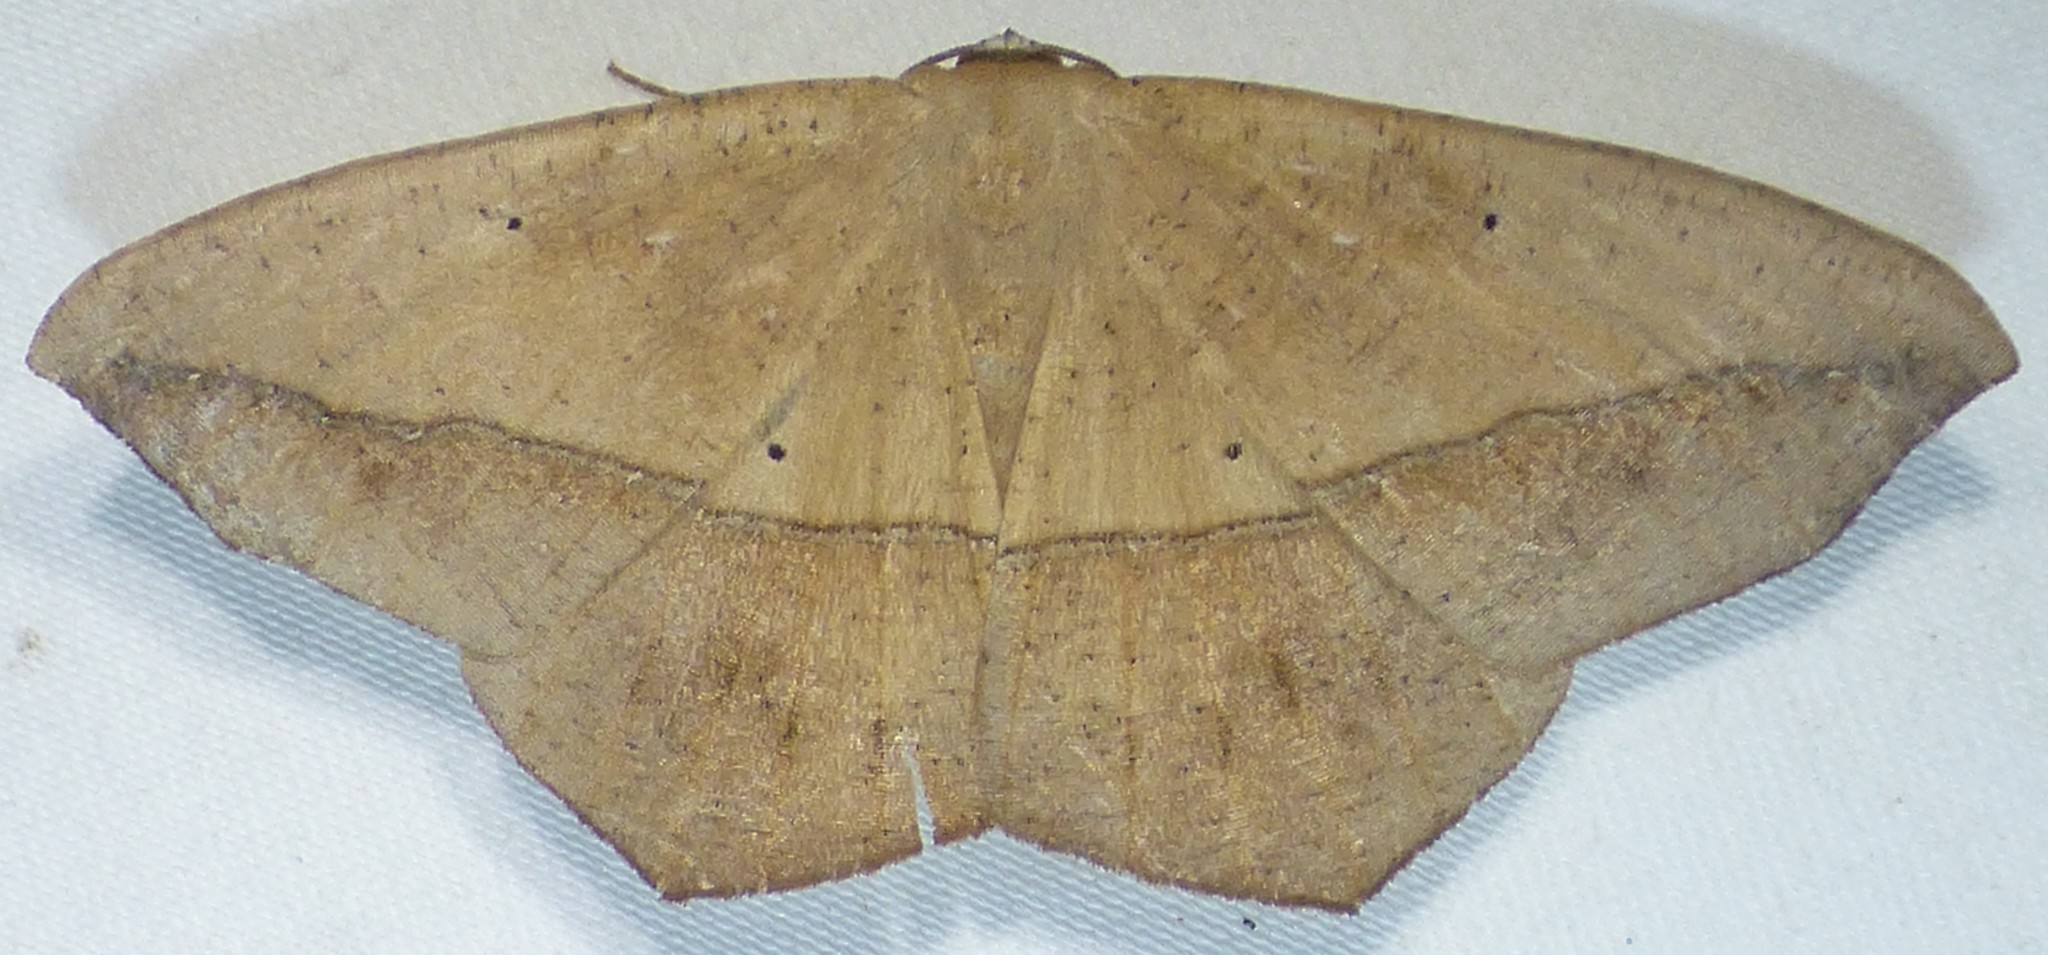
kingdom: Animalia
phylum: Arthropoda
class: Insecta
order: Lepidoptera
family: Geometridae
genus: Prochoerodes
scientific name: Prochoerodes lineola
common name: Large maple spanworm
